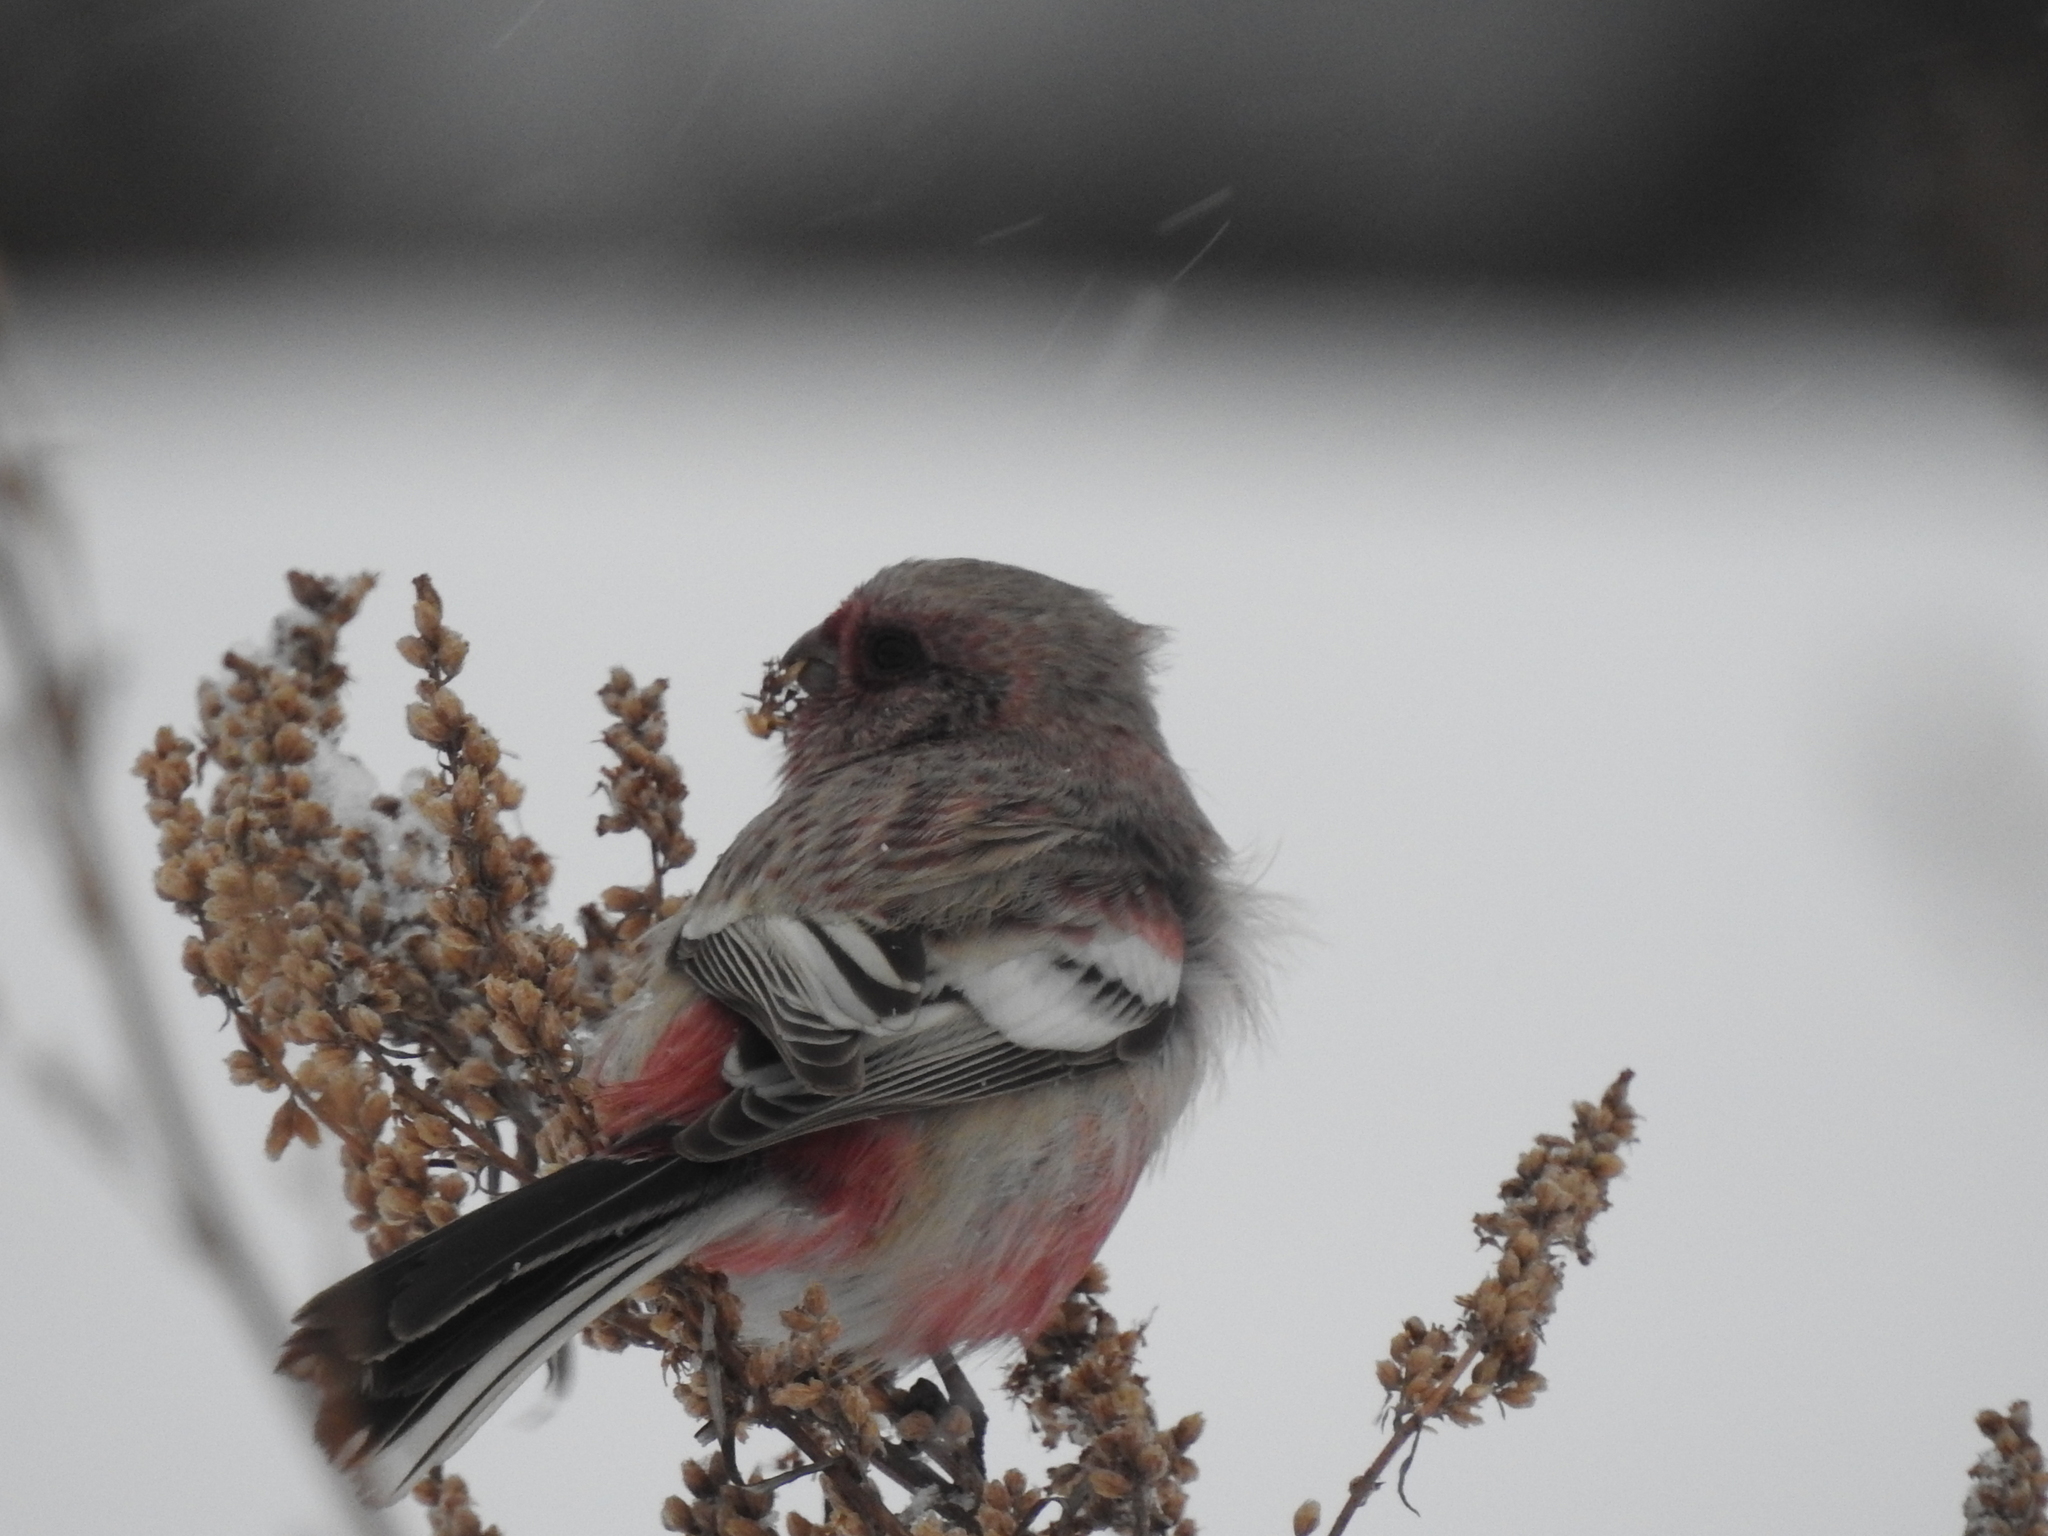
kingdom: Animalia
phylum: Chordata
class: Aves
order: Passeriformes
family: Fringillidae
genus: Carpodacus
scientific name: Carpodacus sibiricus
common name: Long-tailed rosefinch
